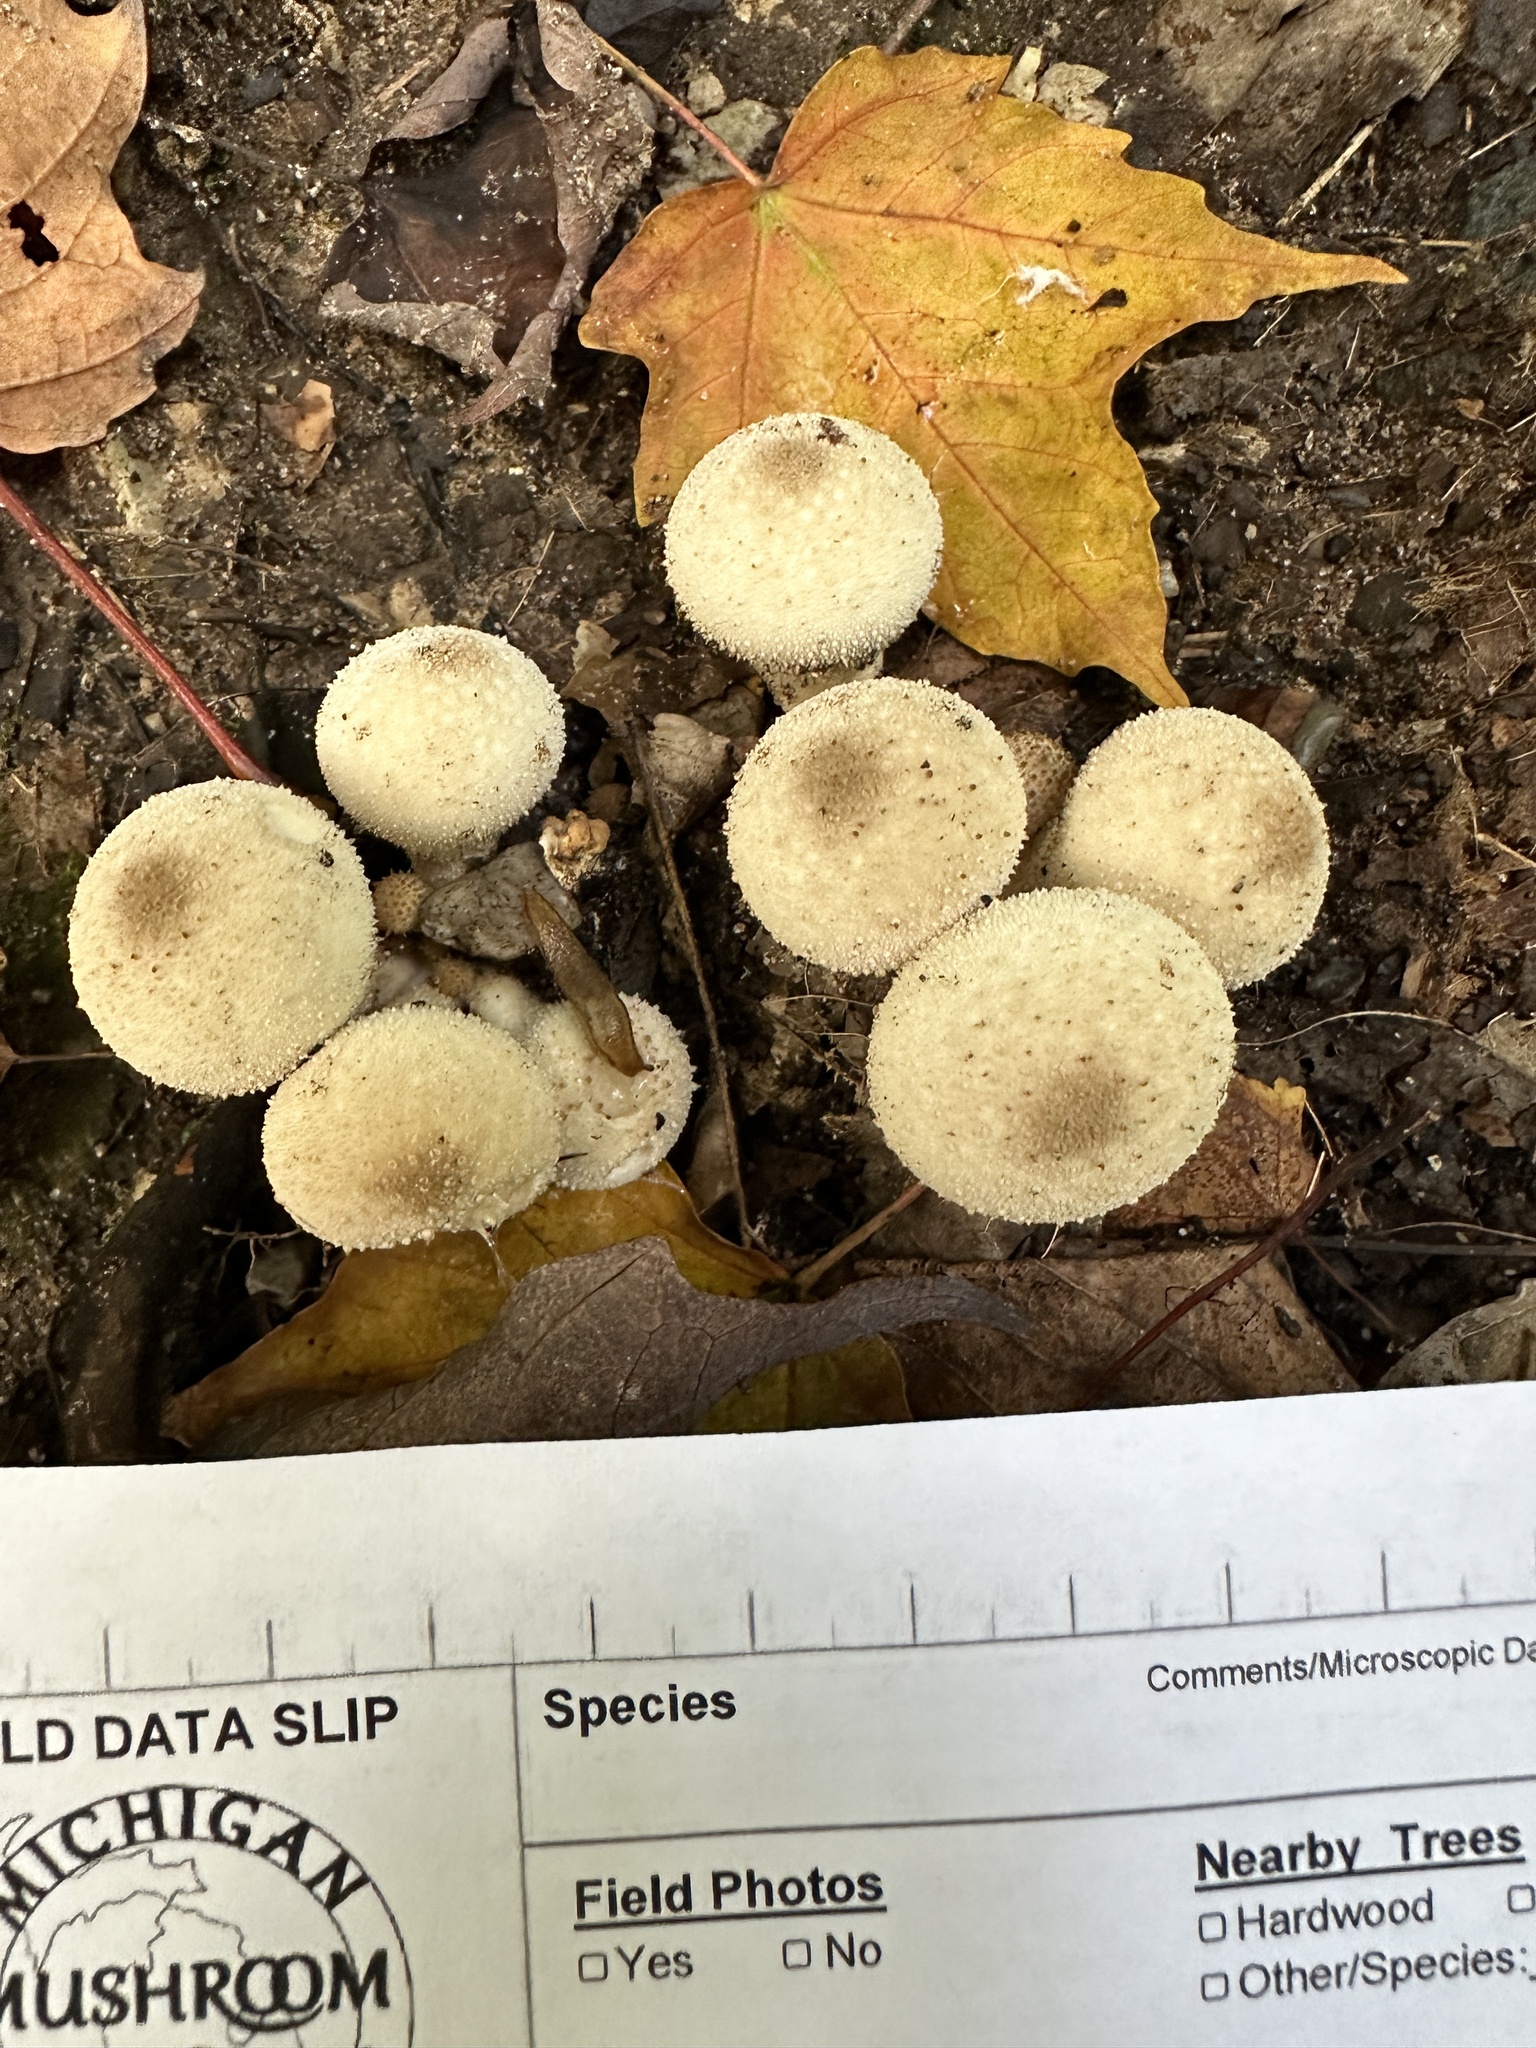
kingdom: Fungi
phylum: Basidiomycota
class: Agaricomycetes
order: Agaricales
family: Lycoperdaceae
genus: Lycoperdon
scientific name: Lycoperdon perlatum
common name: Common puffball
